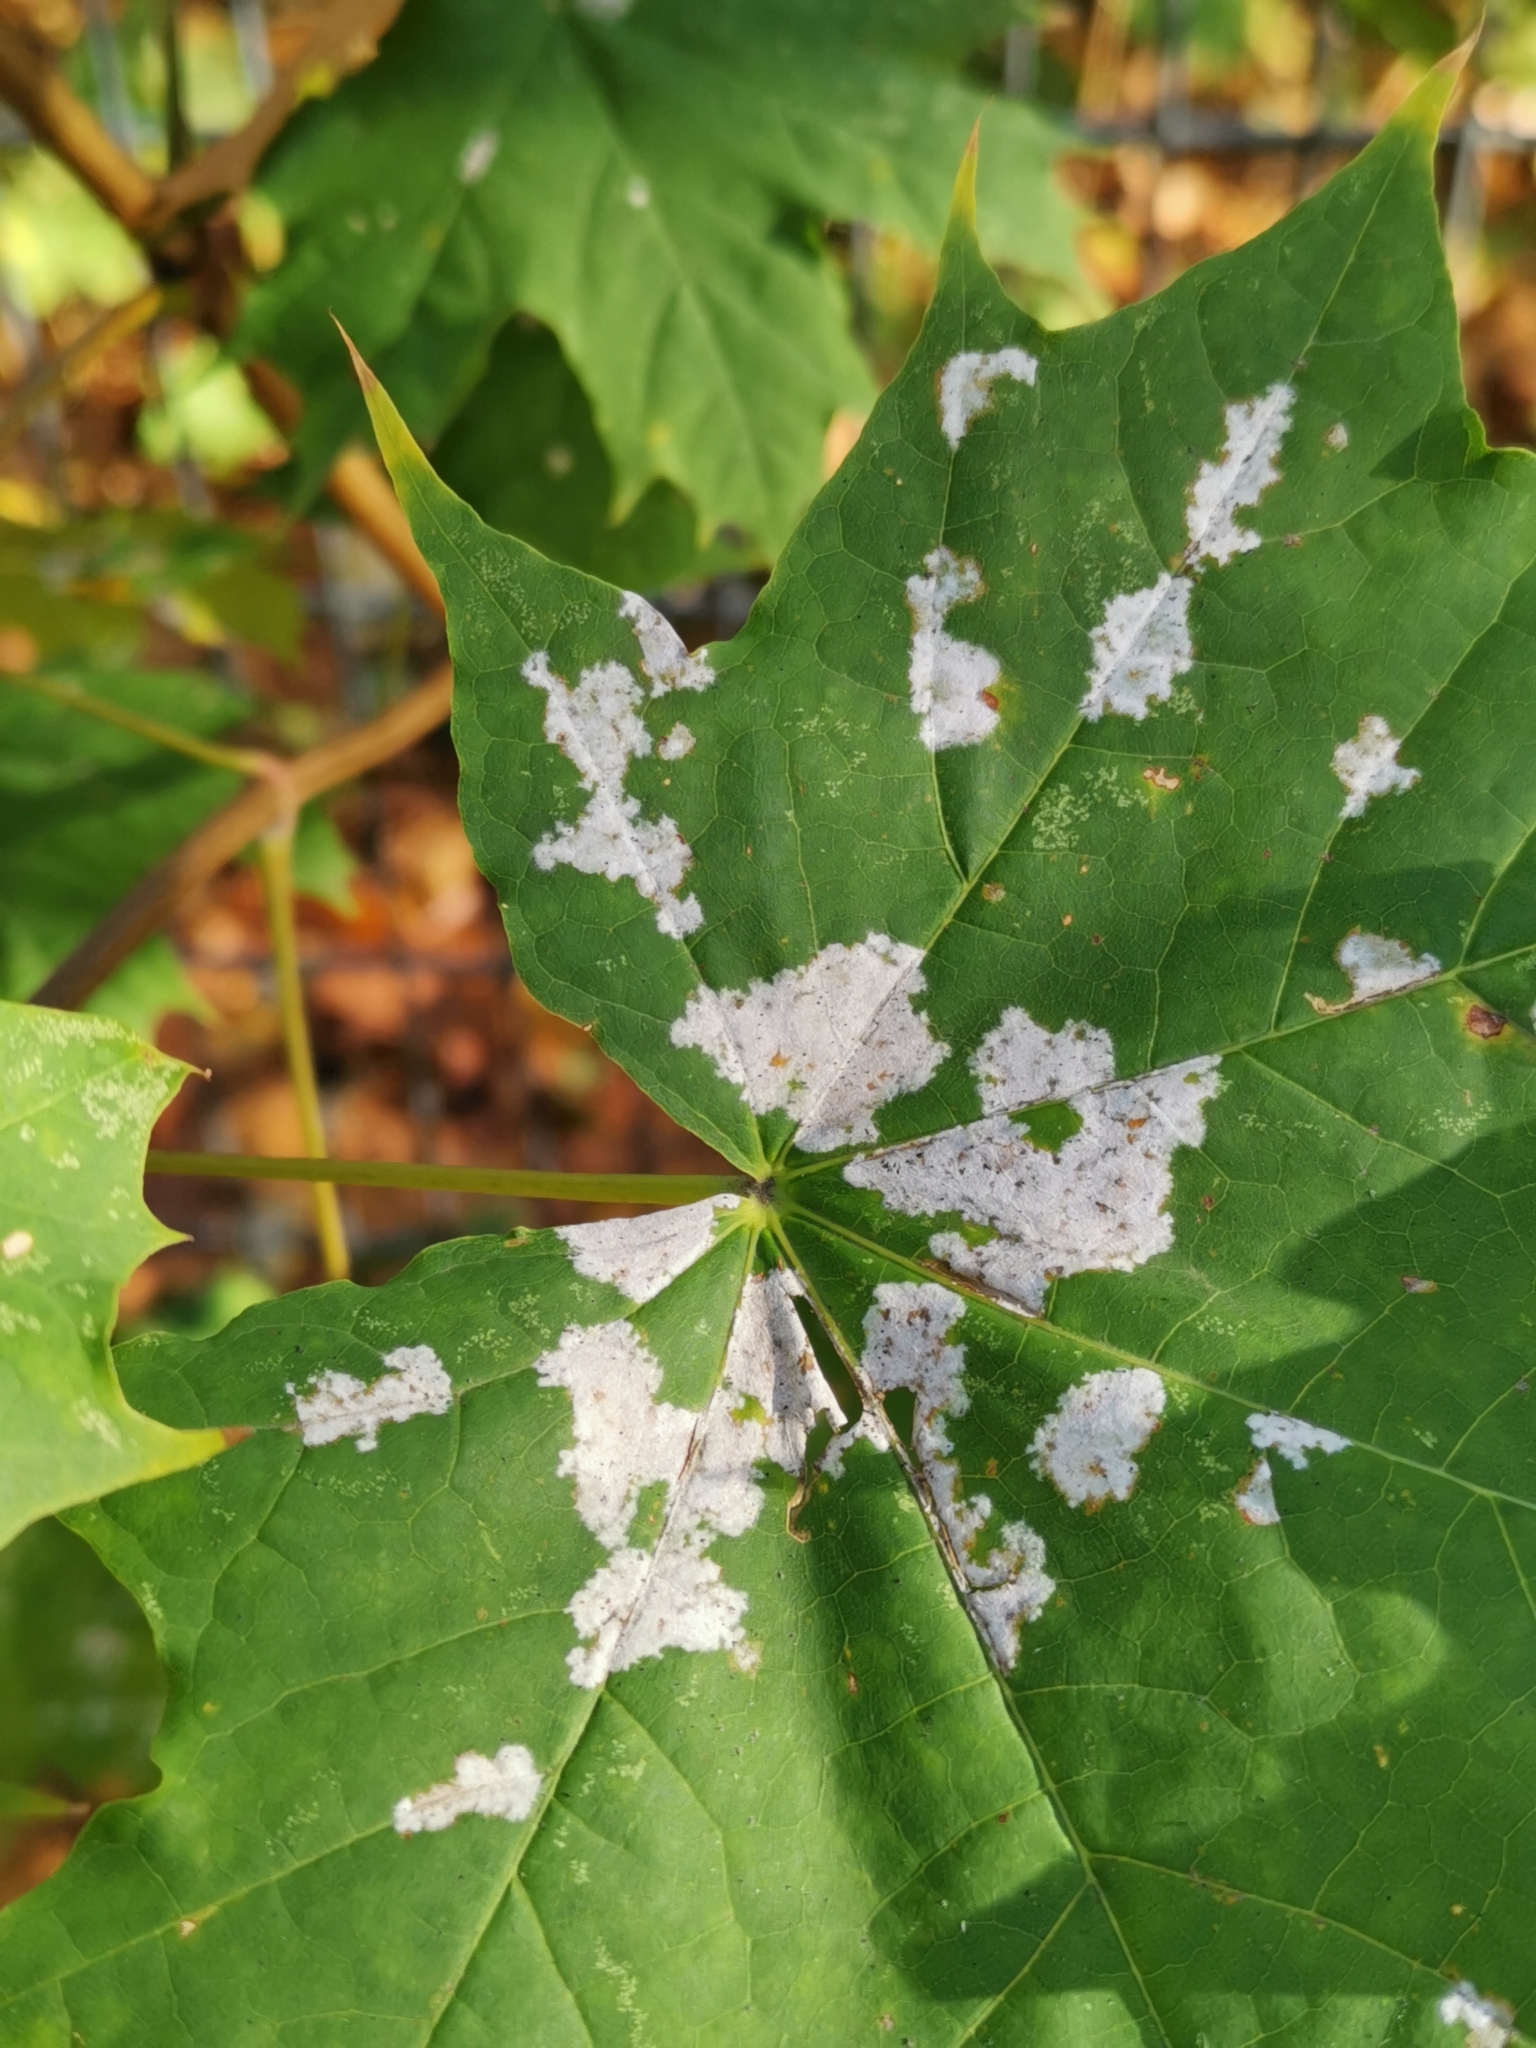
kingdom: Fungi
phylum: Ascomycota
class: Leotiomycetes
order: Helotiales
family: Erysiphaceae
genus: Sawadaea
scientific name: Sawadaea tulasnei
